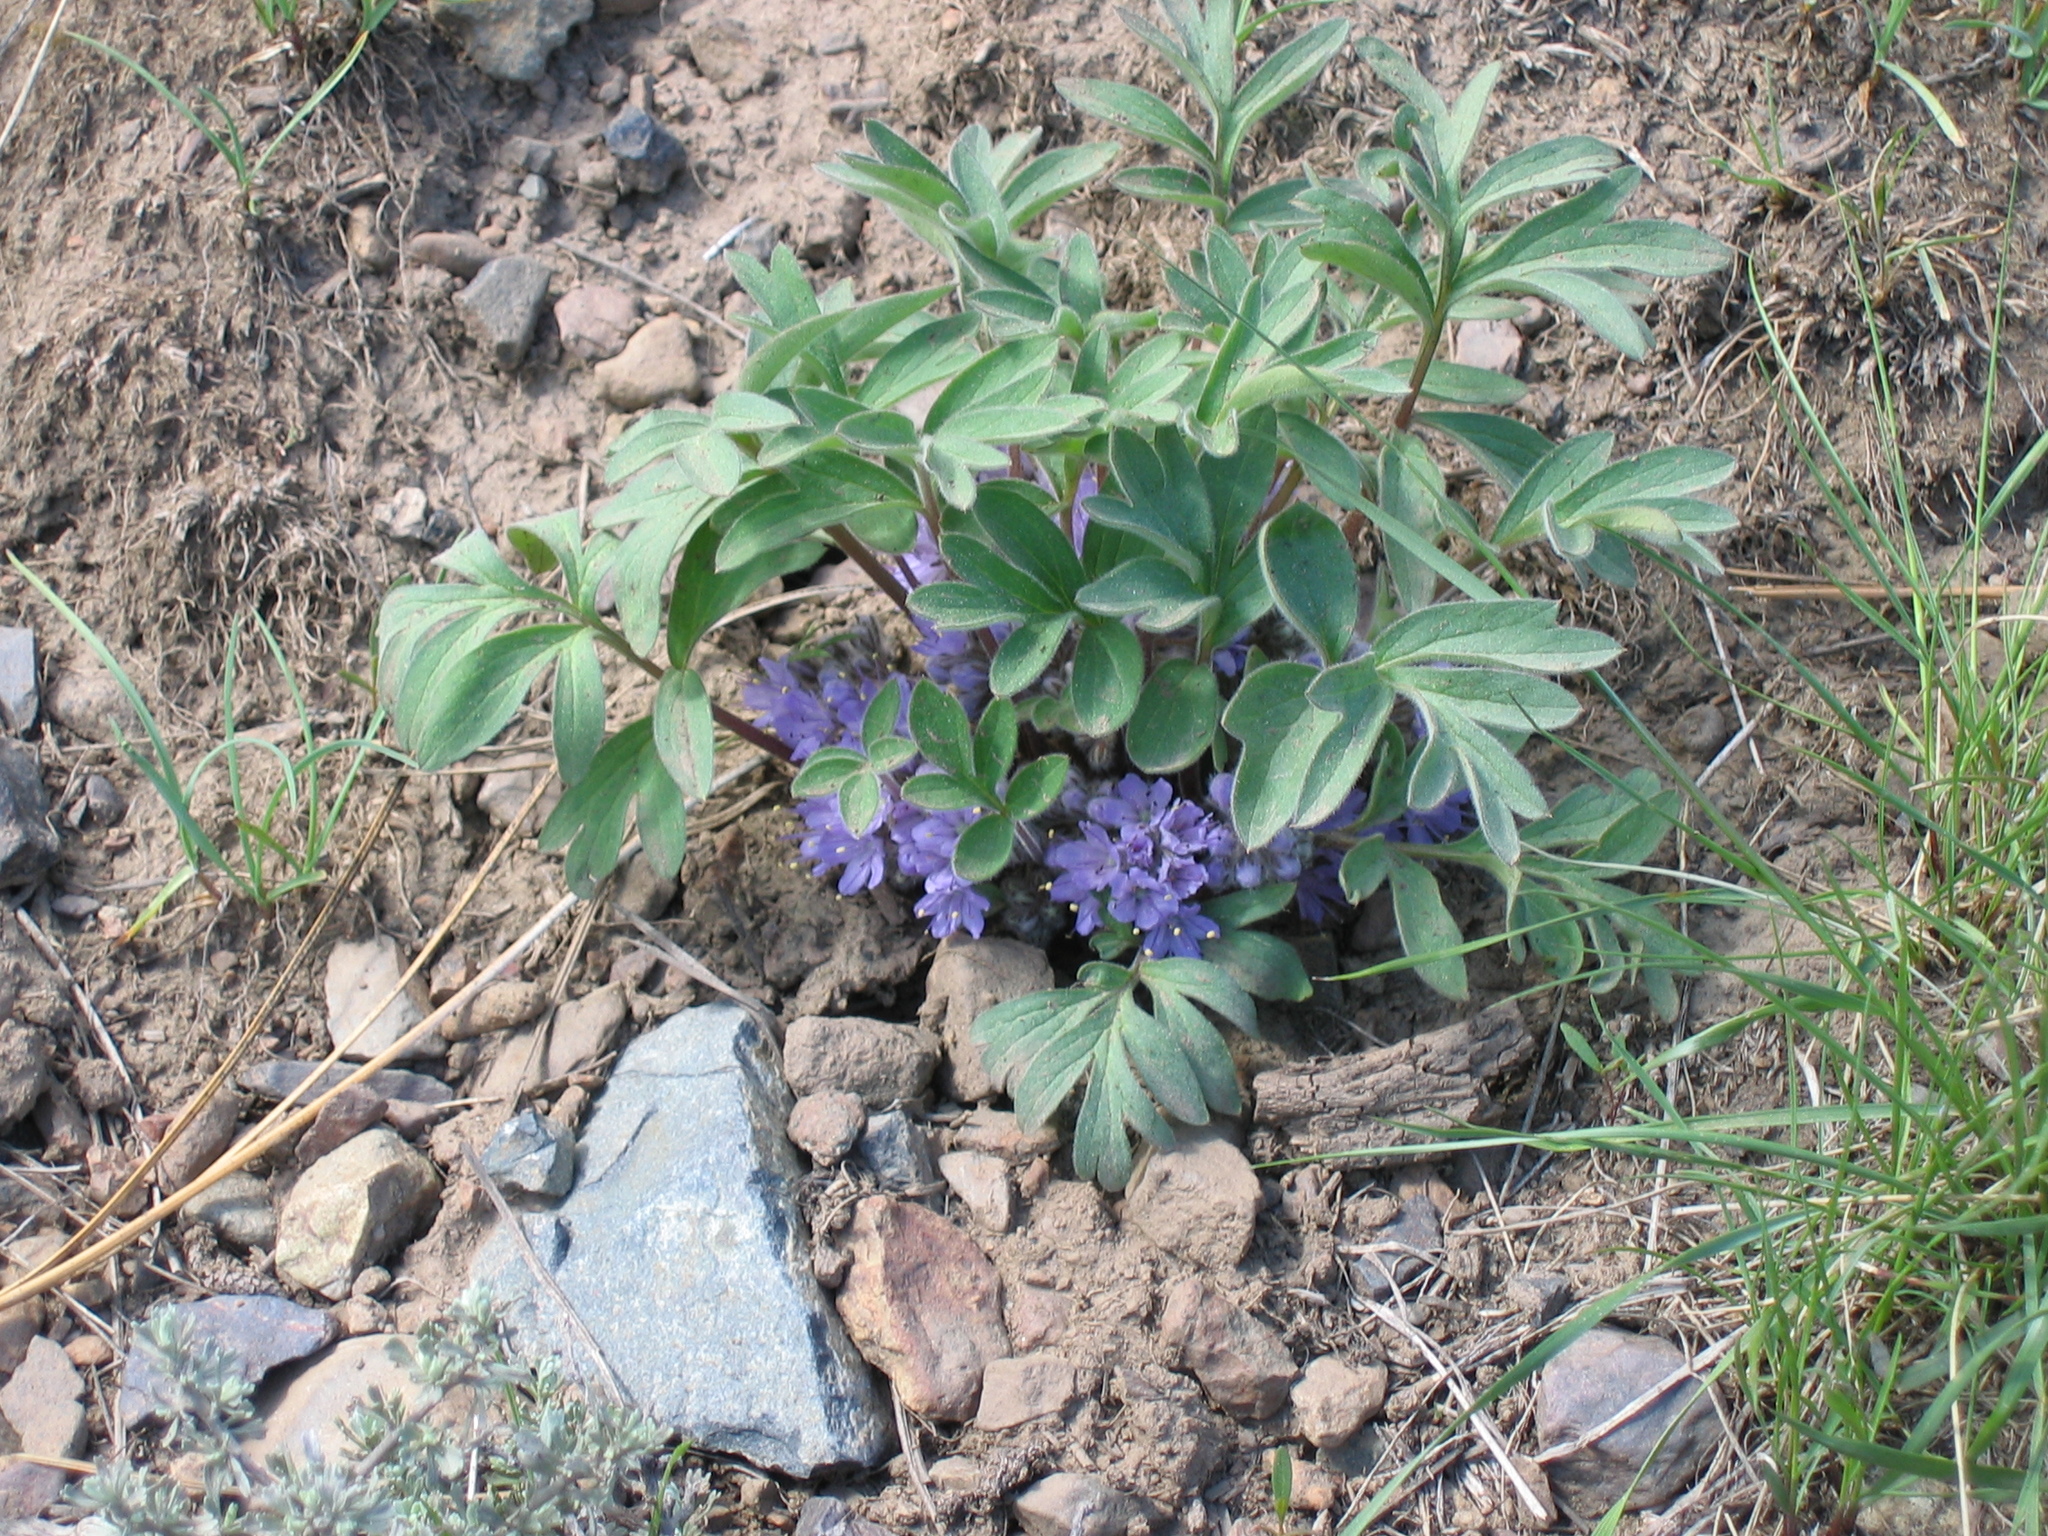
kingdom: Plantae
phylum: Tracheophyta
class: Magnoliopsida
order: Boraginales
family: Hydrophyllaceae
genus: Hydrophyllum
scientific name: Hydrophyllum alpestre
